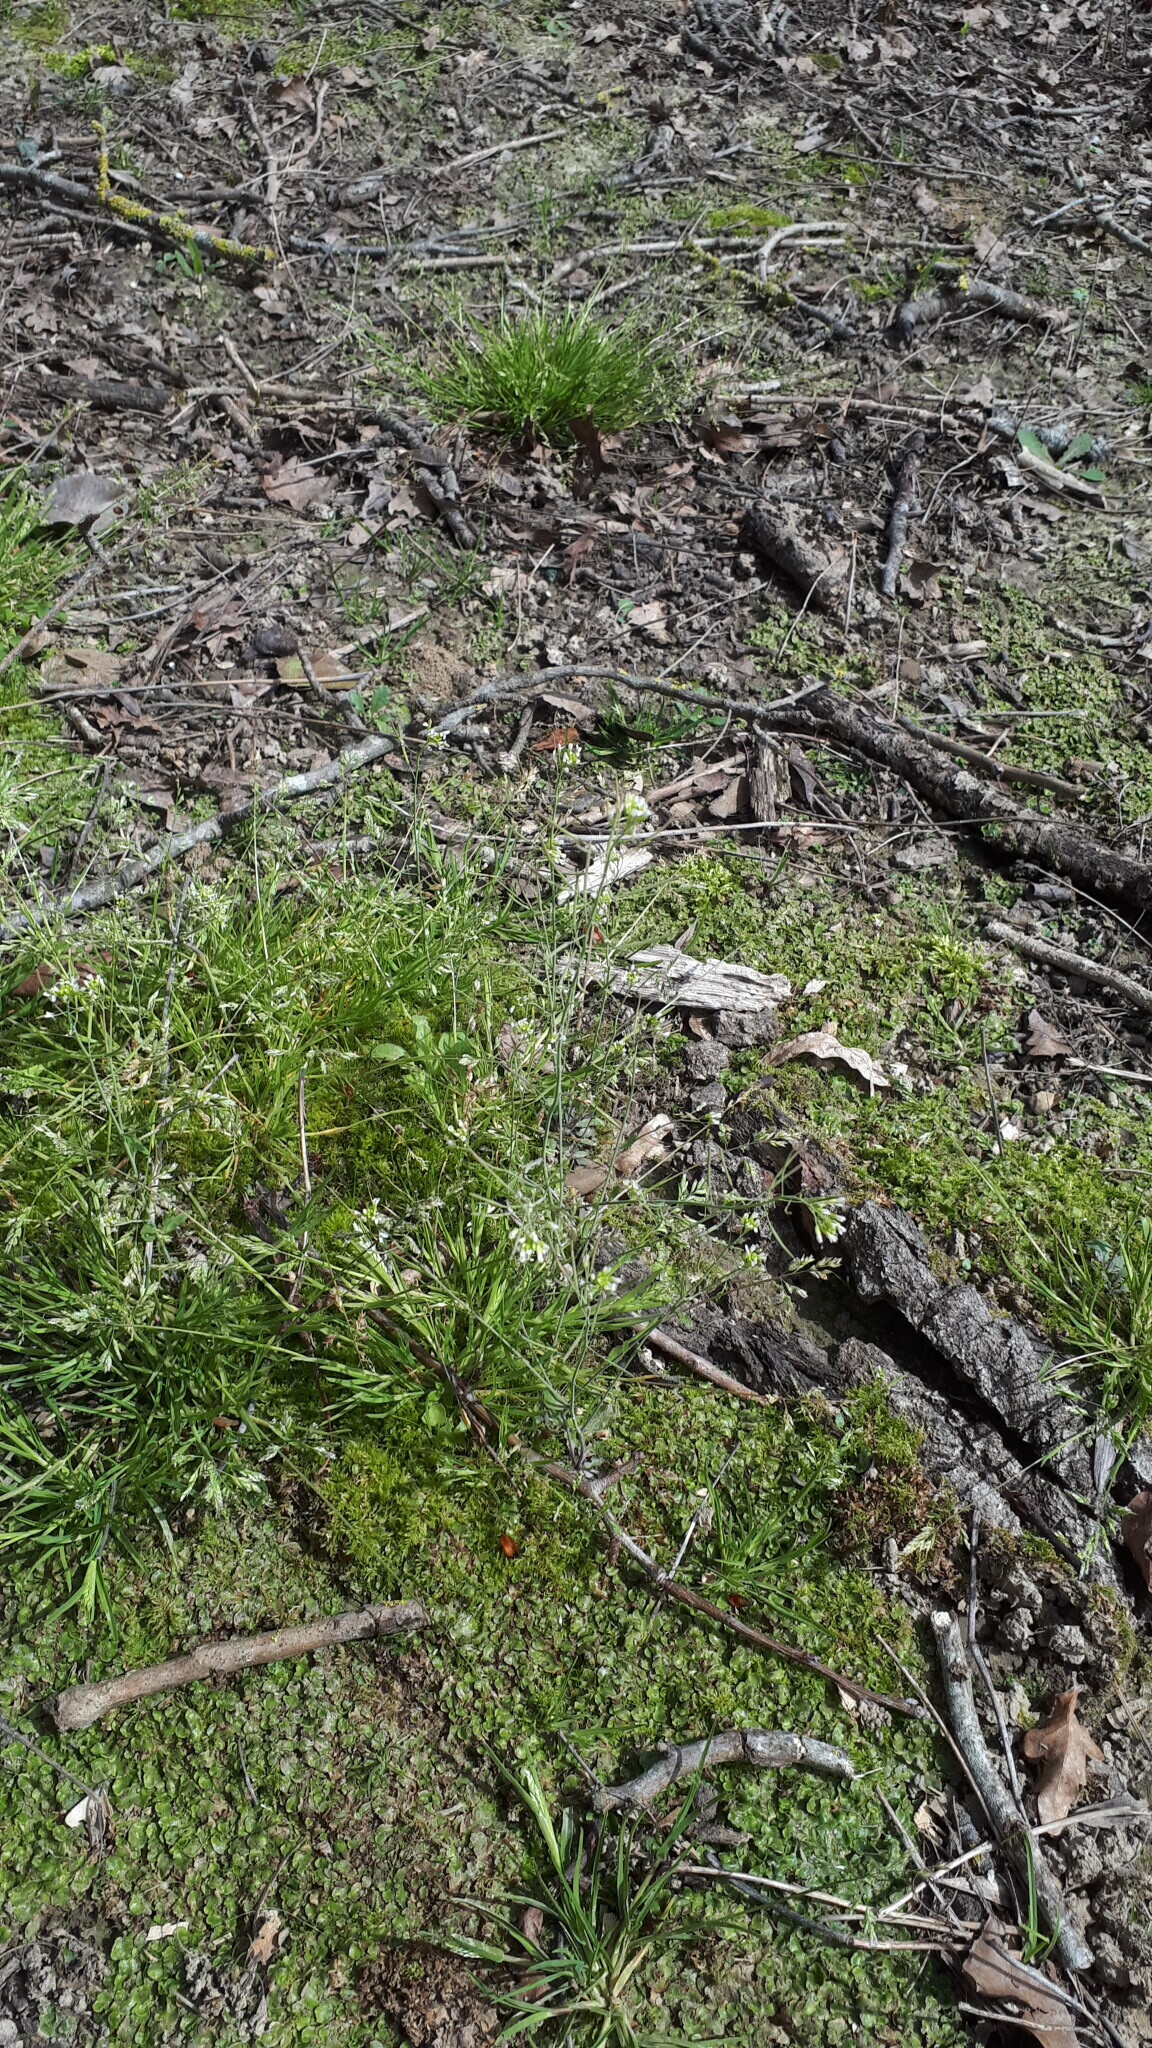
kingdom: Plantae
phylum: Tracheophyta
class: Magnoliopsida
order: Brassicales
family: Brassicaceae
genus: Arabidopsis
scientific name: Arabidopsis thaliana
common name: Thale cress
